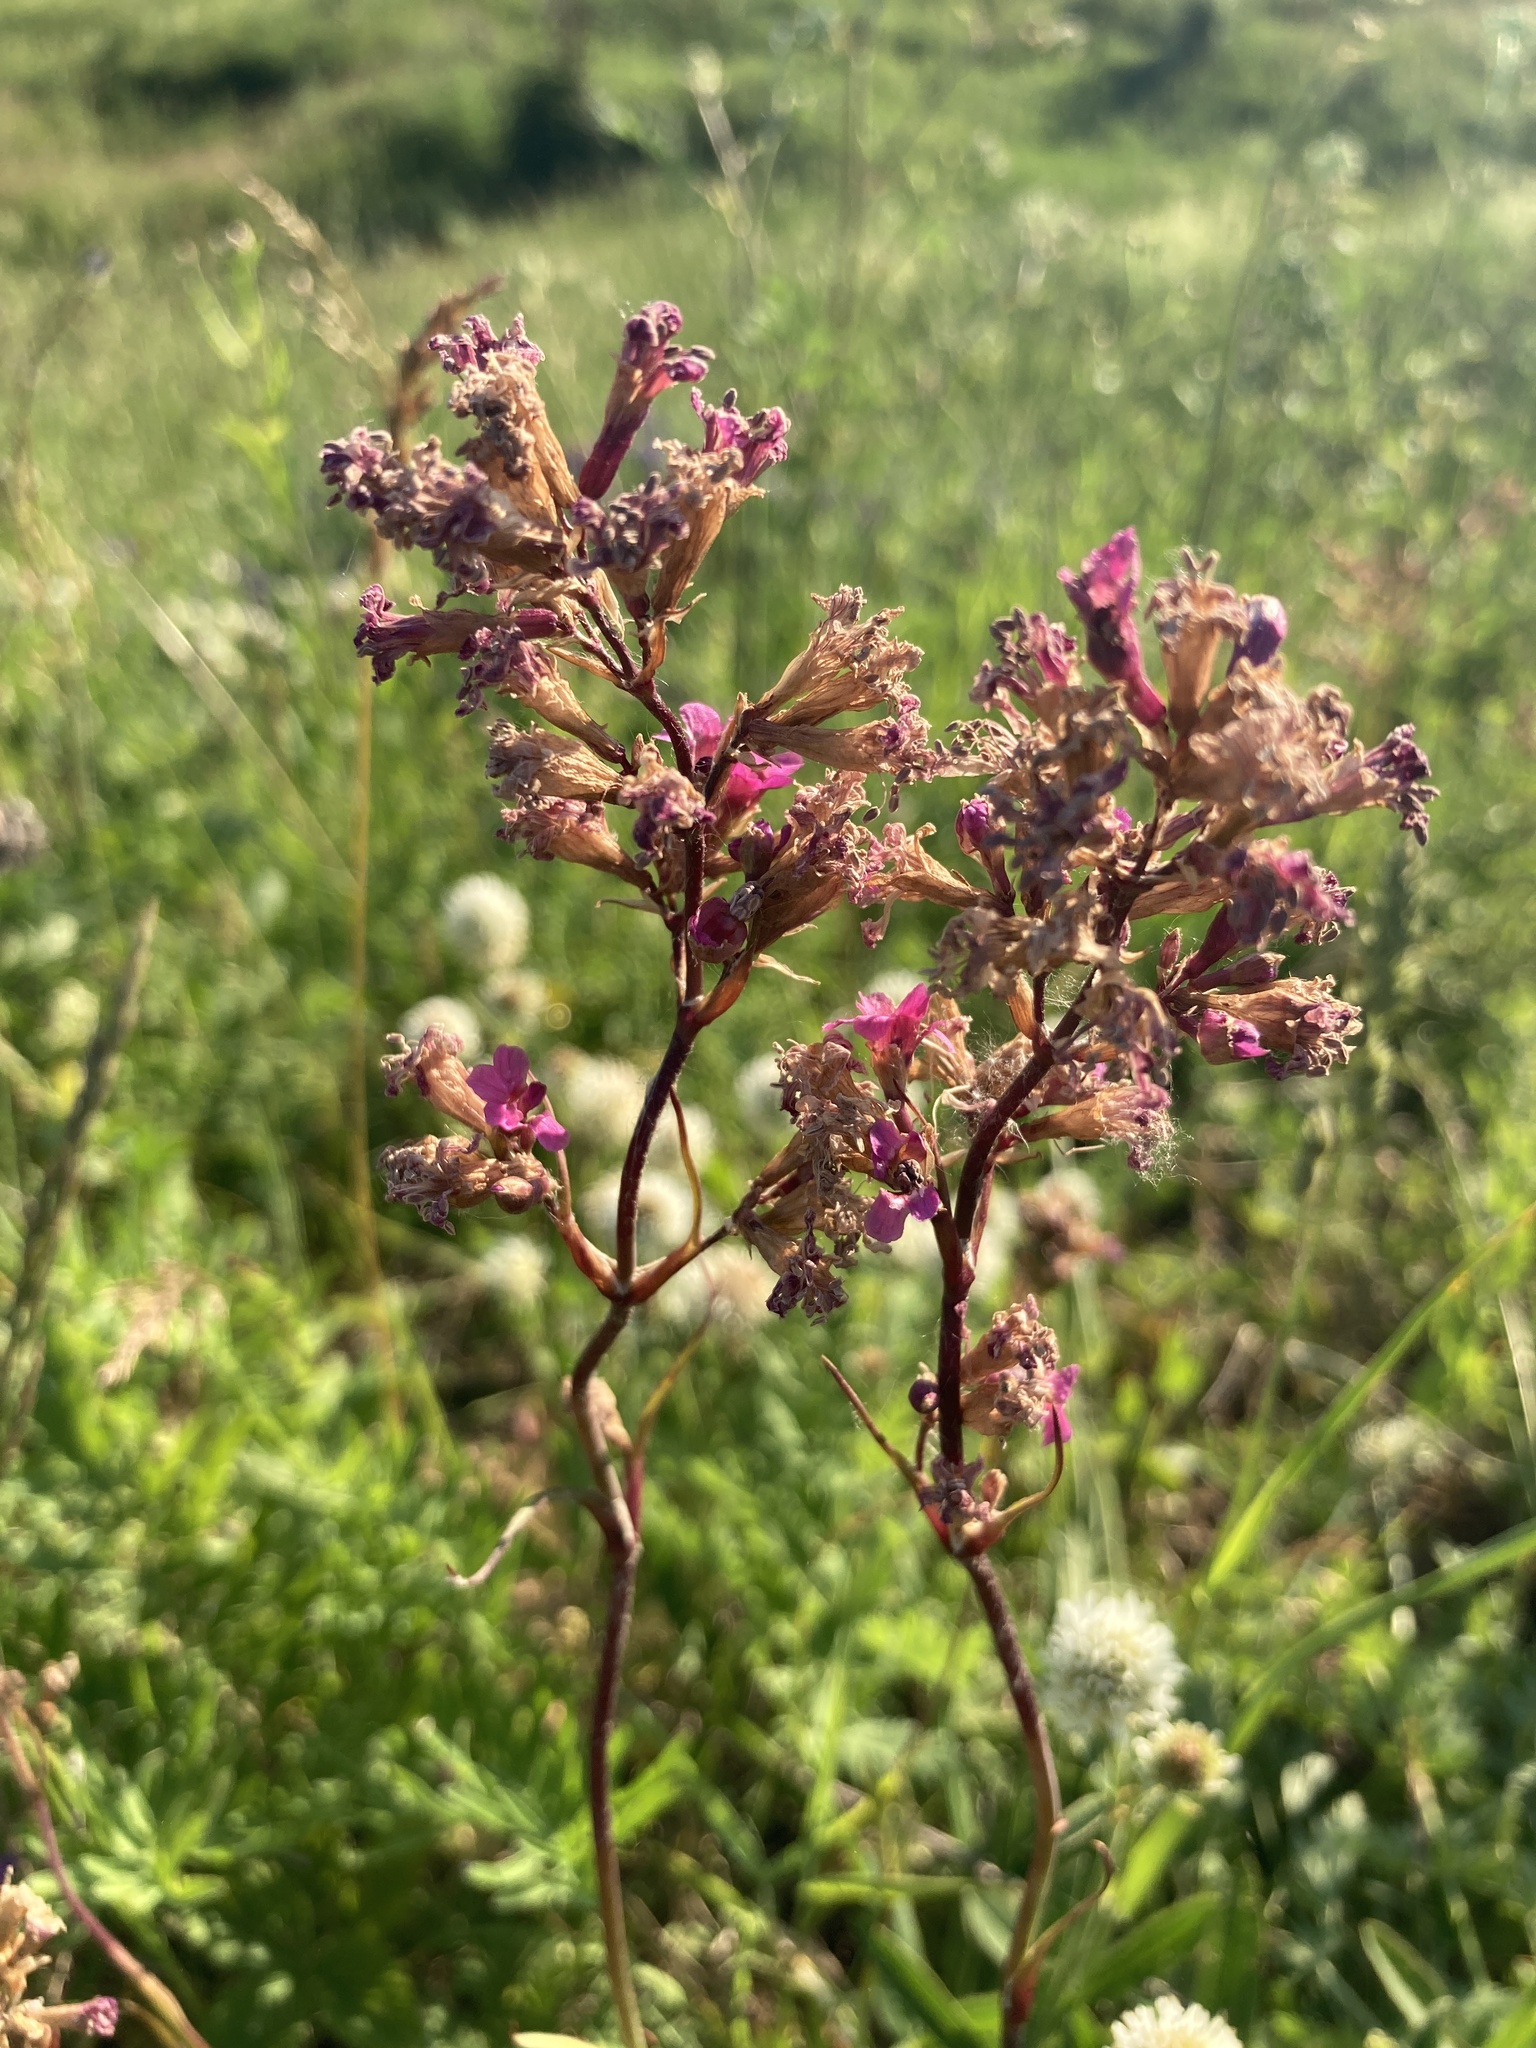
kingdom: Plantae
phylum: Tracheophyta
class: Magnoliopsida
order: Caryophyllales
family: Caryophyllaceae
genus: Viscaria
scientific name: Viscaria vulgaris
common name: Clammy campion
